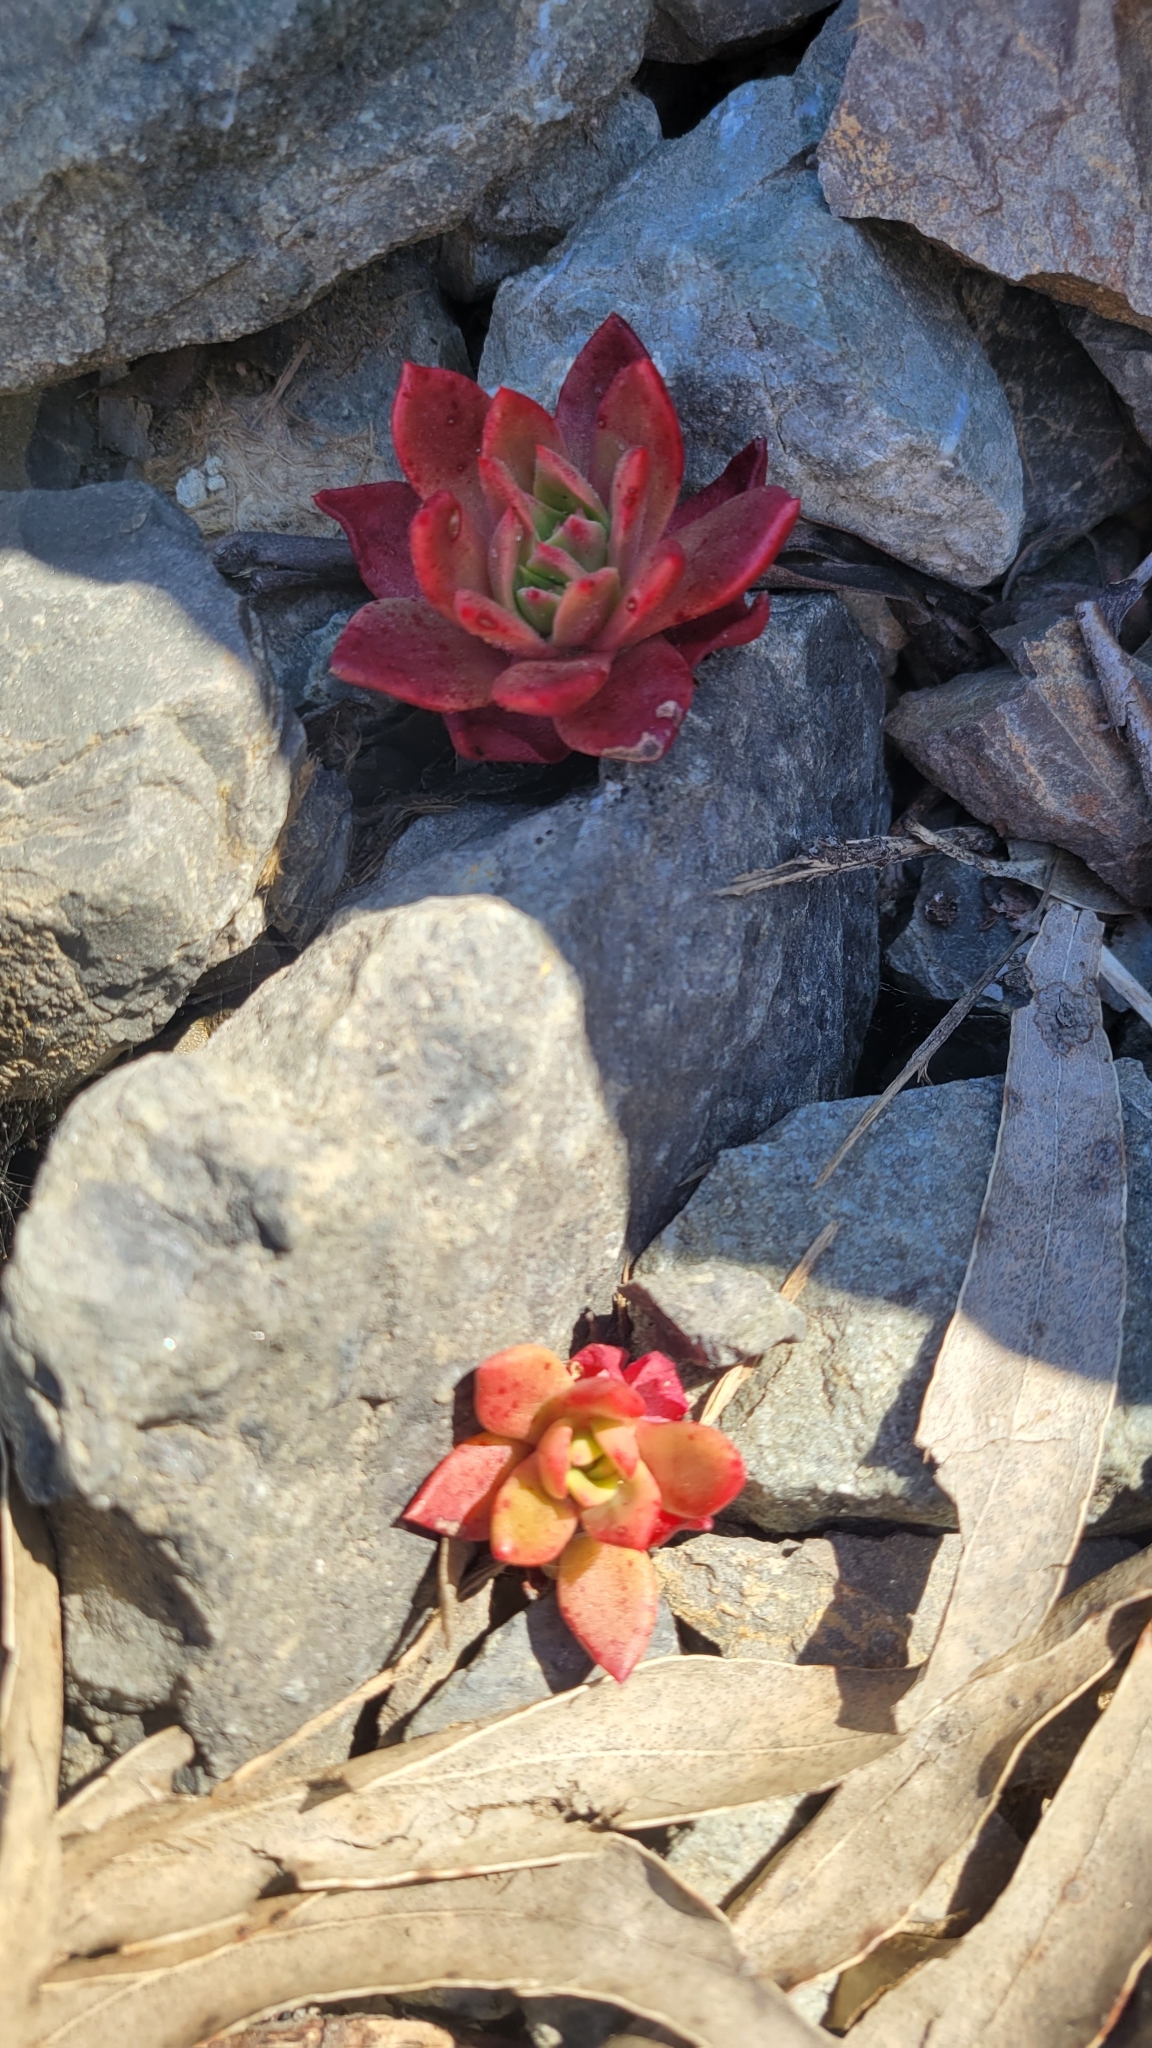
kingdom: Plantae
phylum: Tracheophyta
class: Magnoliopsida
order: Saxifragales
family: Crassulaceae
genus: Dudleya
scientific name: Dudleya farinosa
